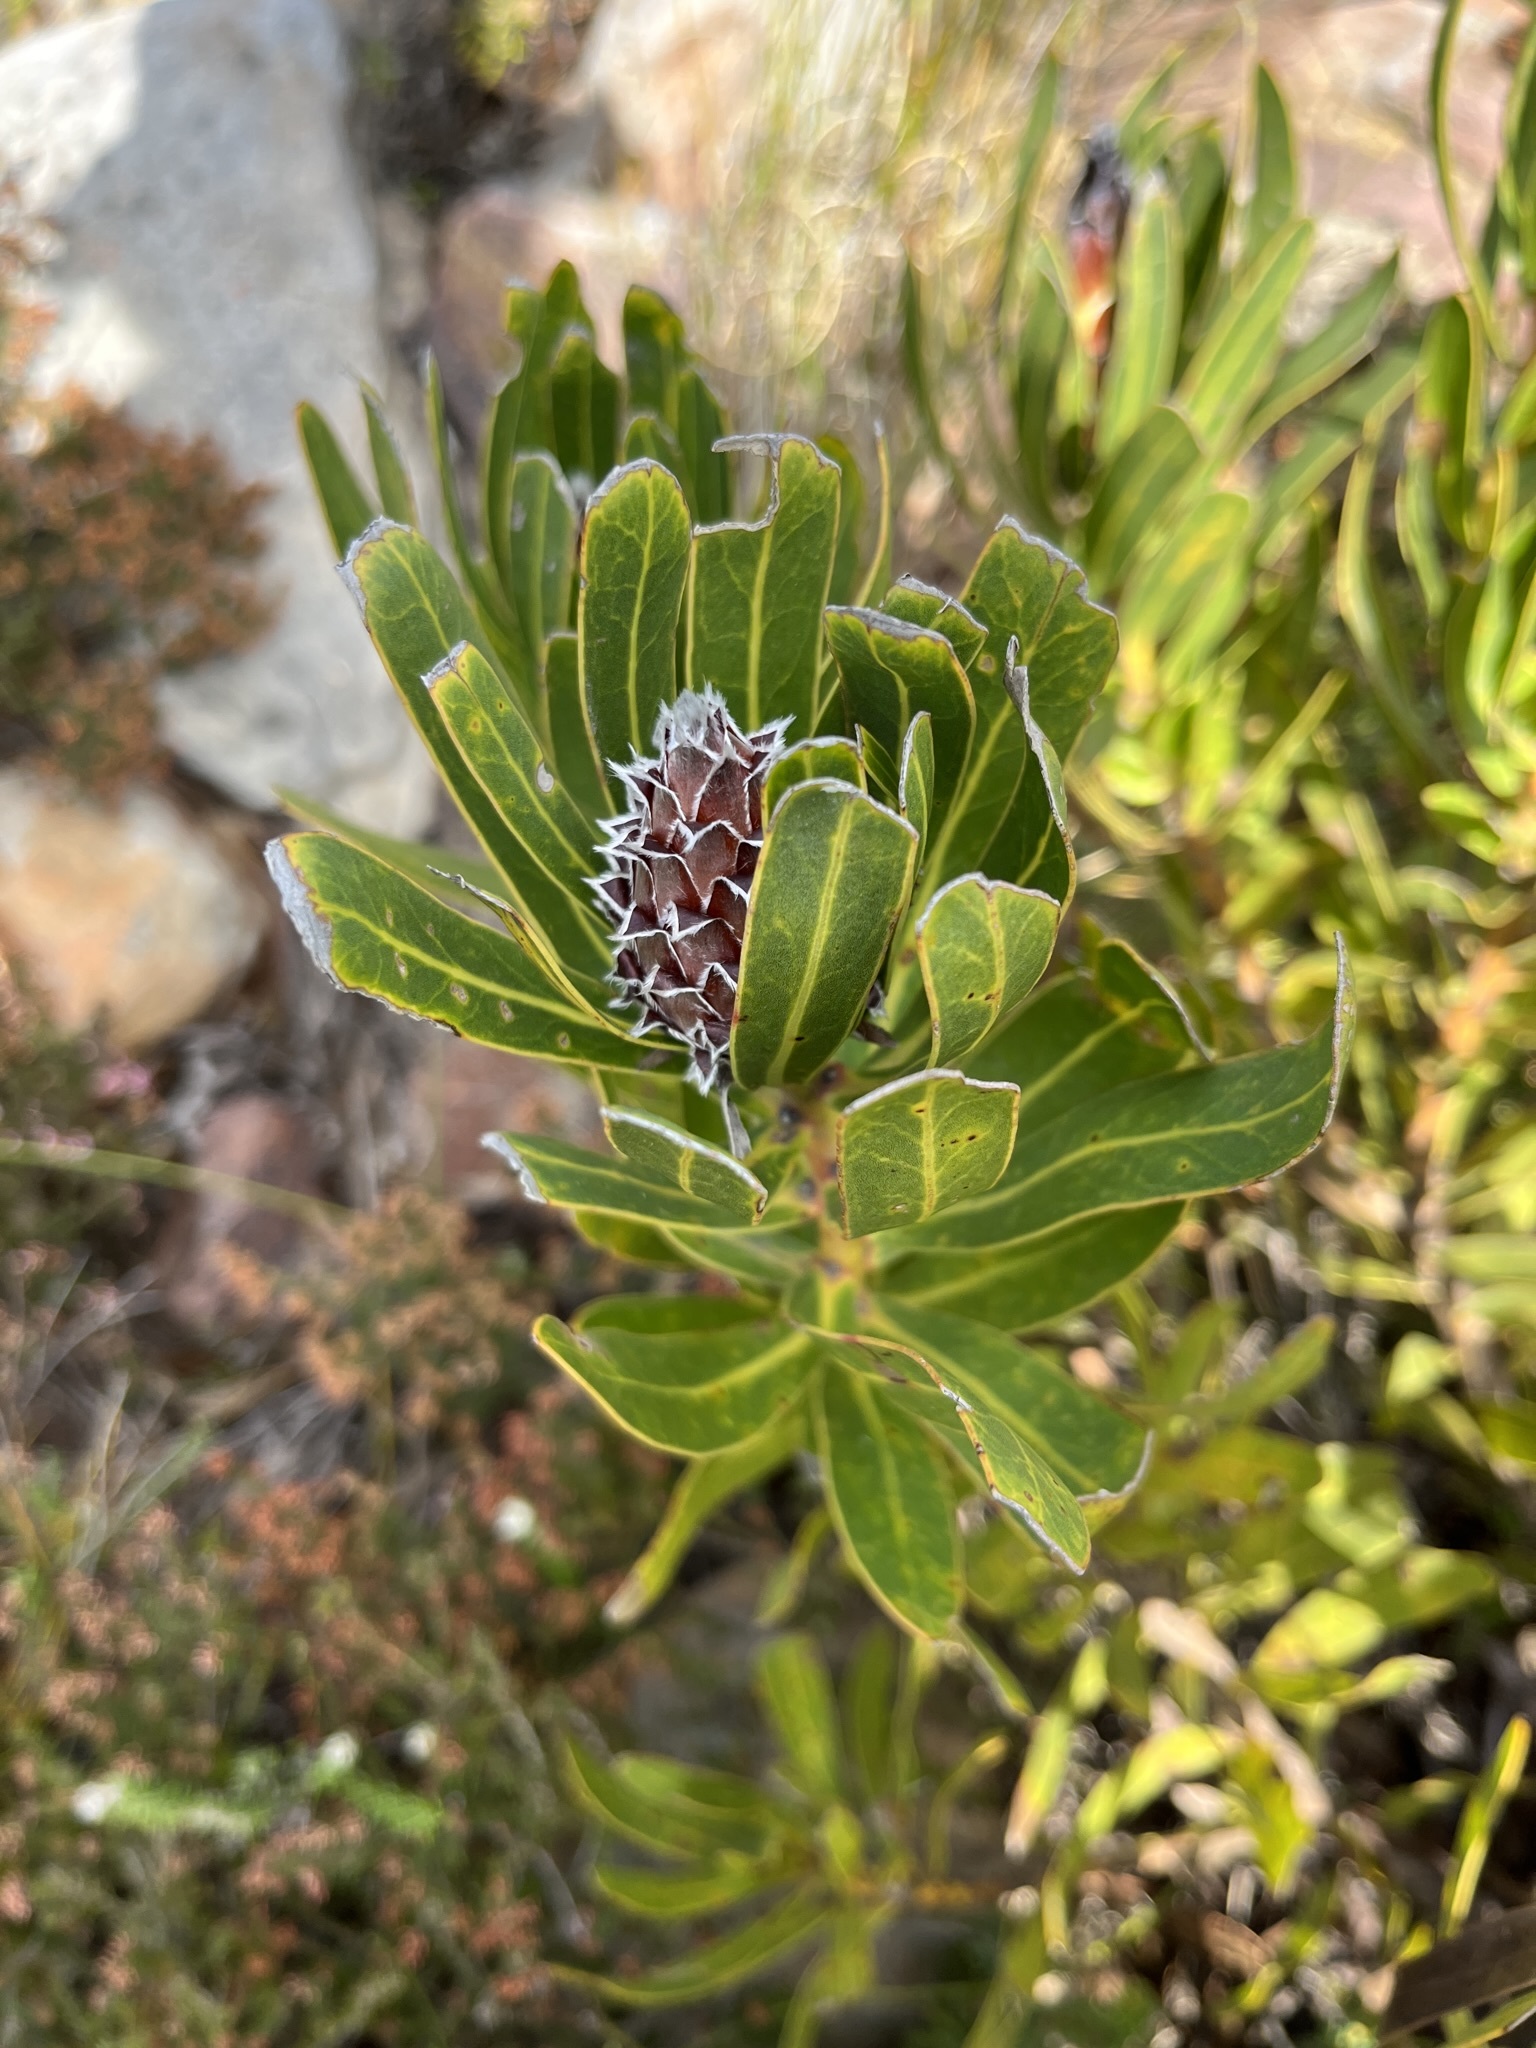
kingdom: Plantae
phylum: Tracheophyta
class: Magnoliopsida
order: Proteales
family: Proteaceae
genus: Protea
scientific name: Protea lepidocarpodendron
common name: Black-bearded protea
